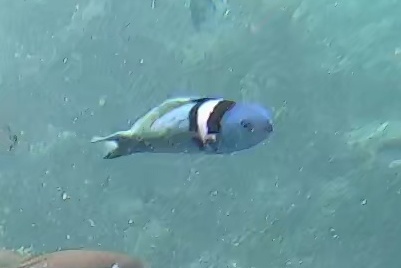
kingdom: Animalia
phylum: Chordata
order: Perciformes
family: Labridae
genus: Thalassoma
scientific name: Thalassoma bifasciatum
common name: Bluehead wrasse
